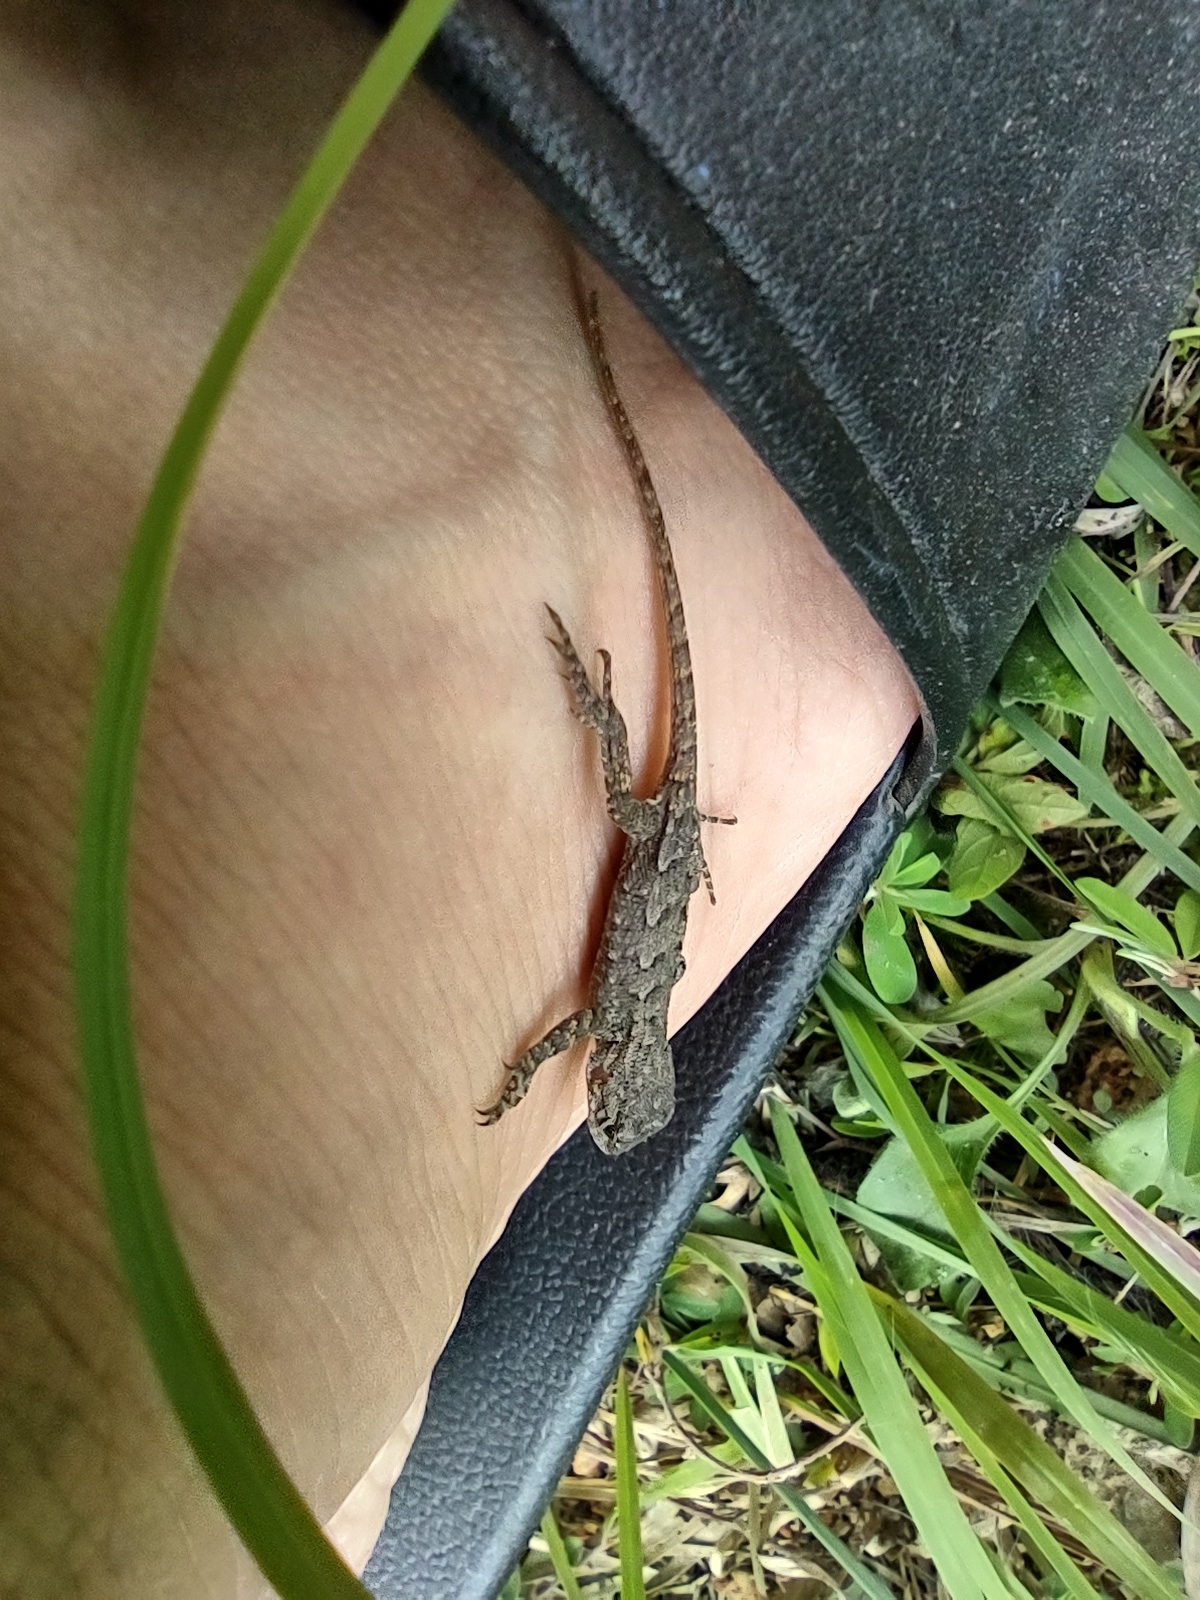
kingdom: Animalia
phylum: Chordata
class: Squamata
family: Phrynosomatidae
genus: Sceloporus
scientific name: Sceloporus undulatus
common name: Eastern fence lizard
